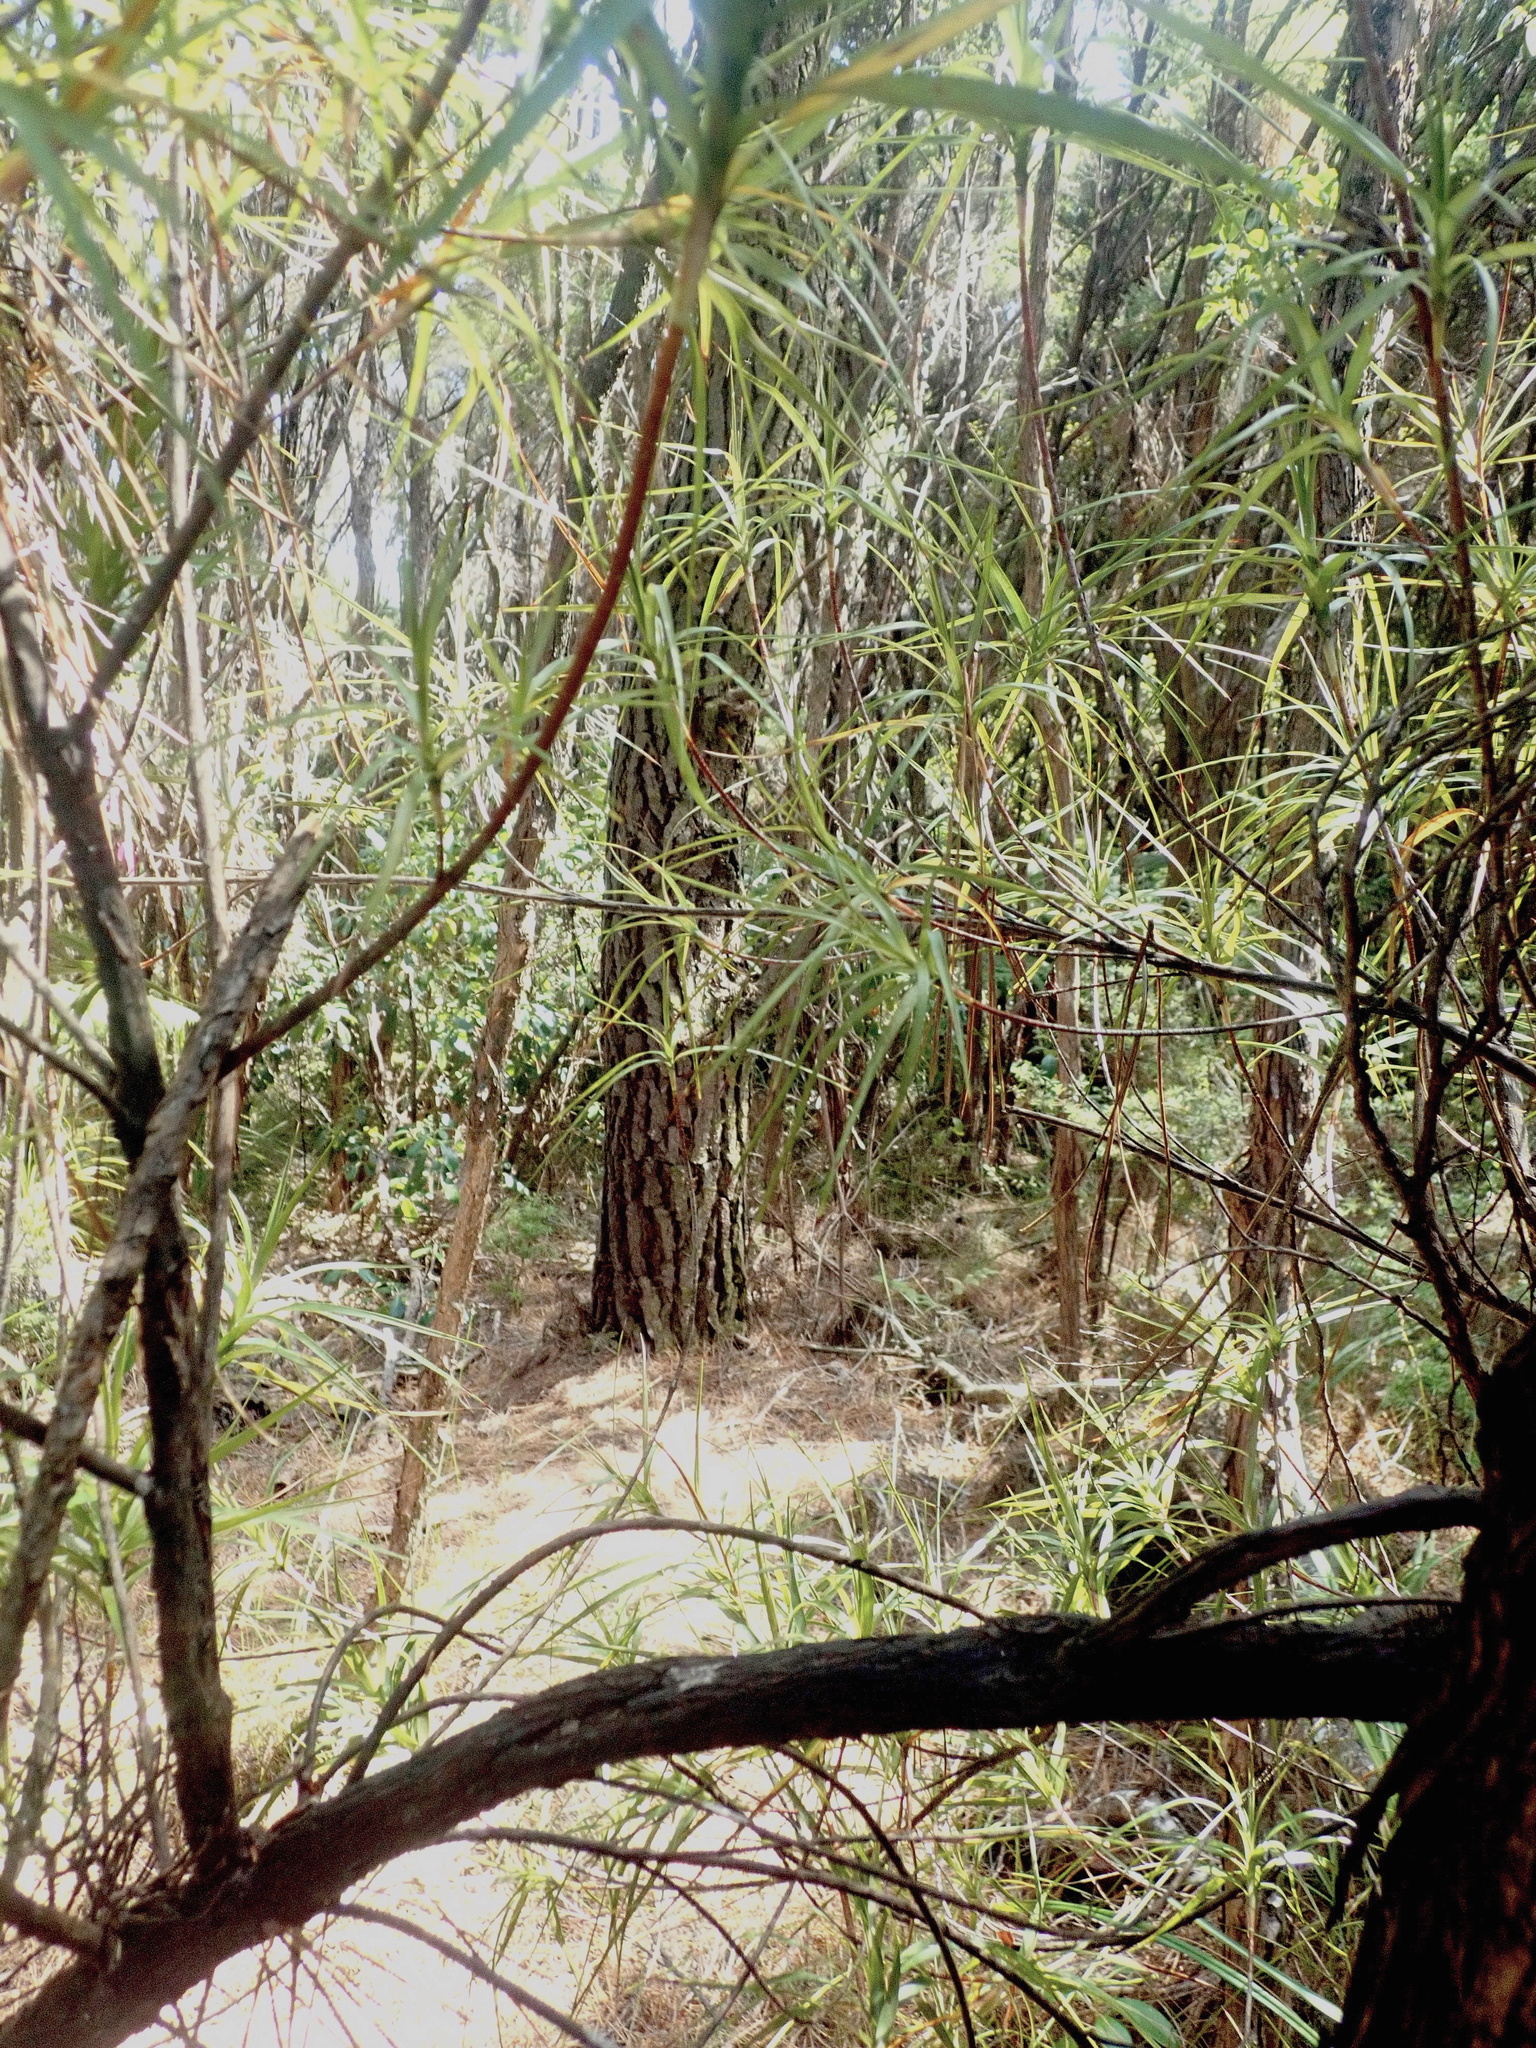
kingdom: Plantae
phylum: Tracheophyta
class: Magnoliopsida
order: Ericales
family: Ericaceae
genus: Dracophyllum
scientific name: Dracophyllum sinclairii
